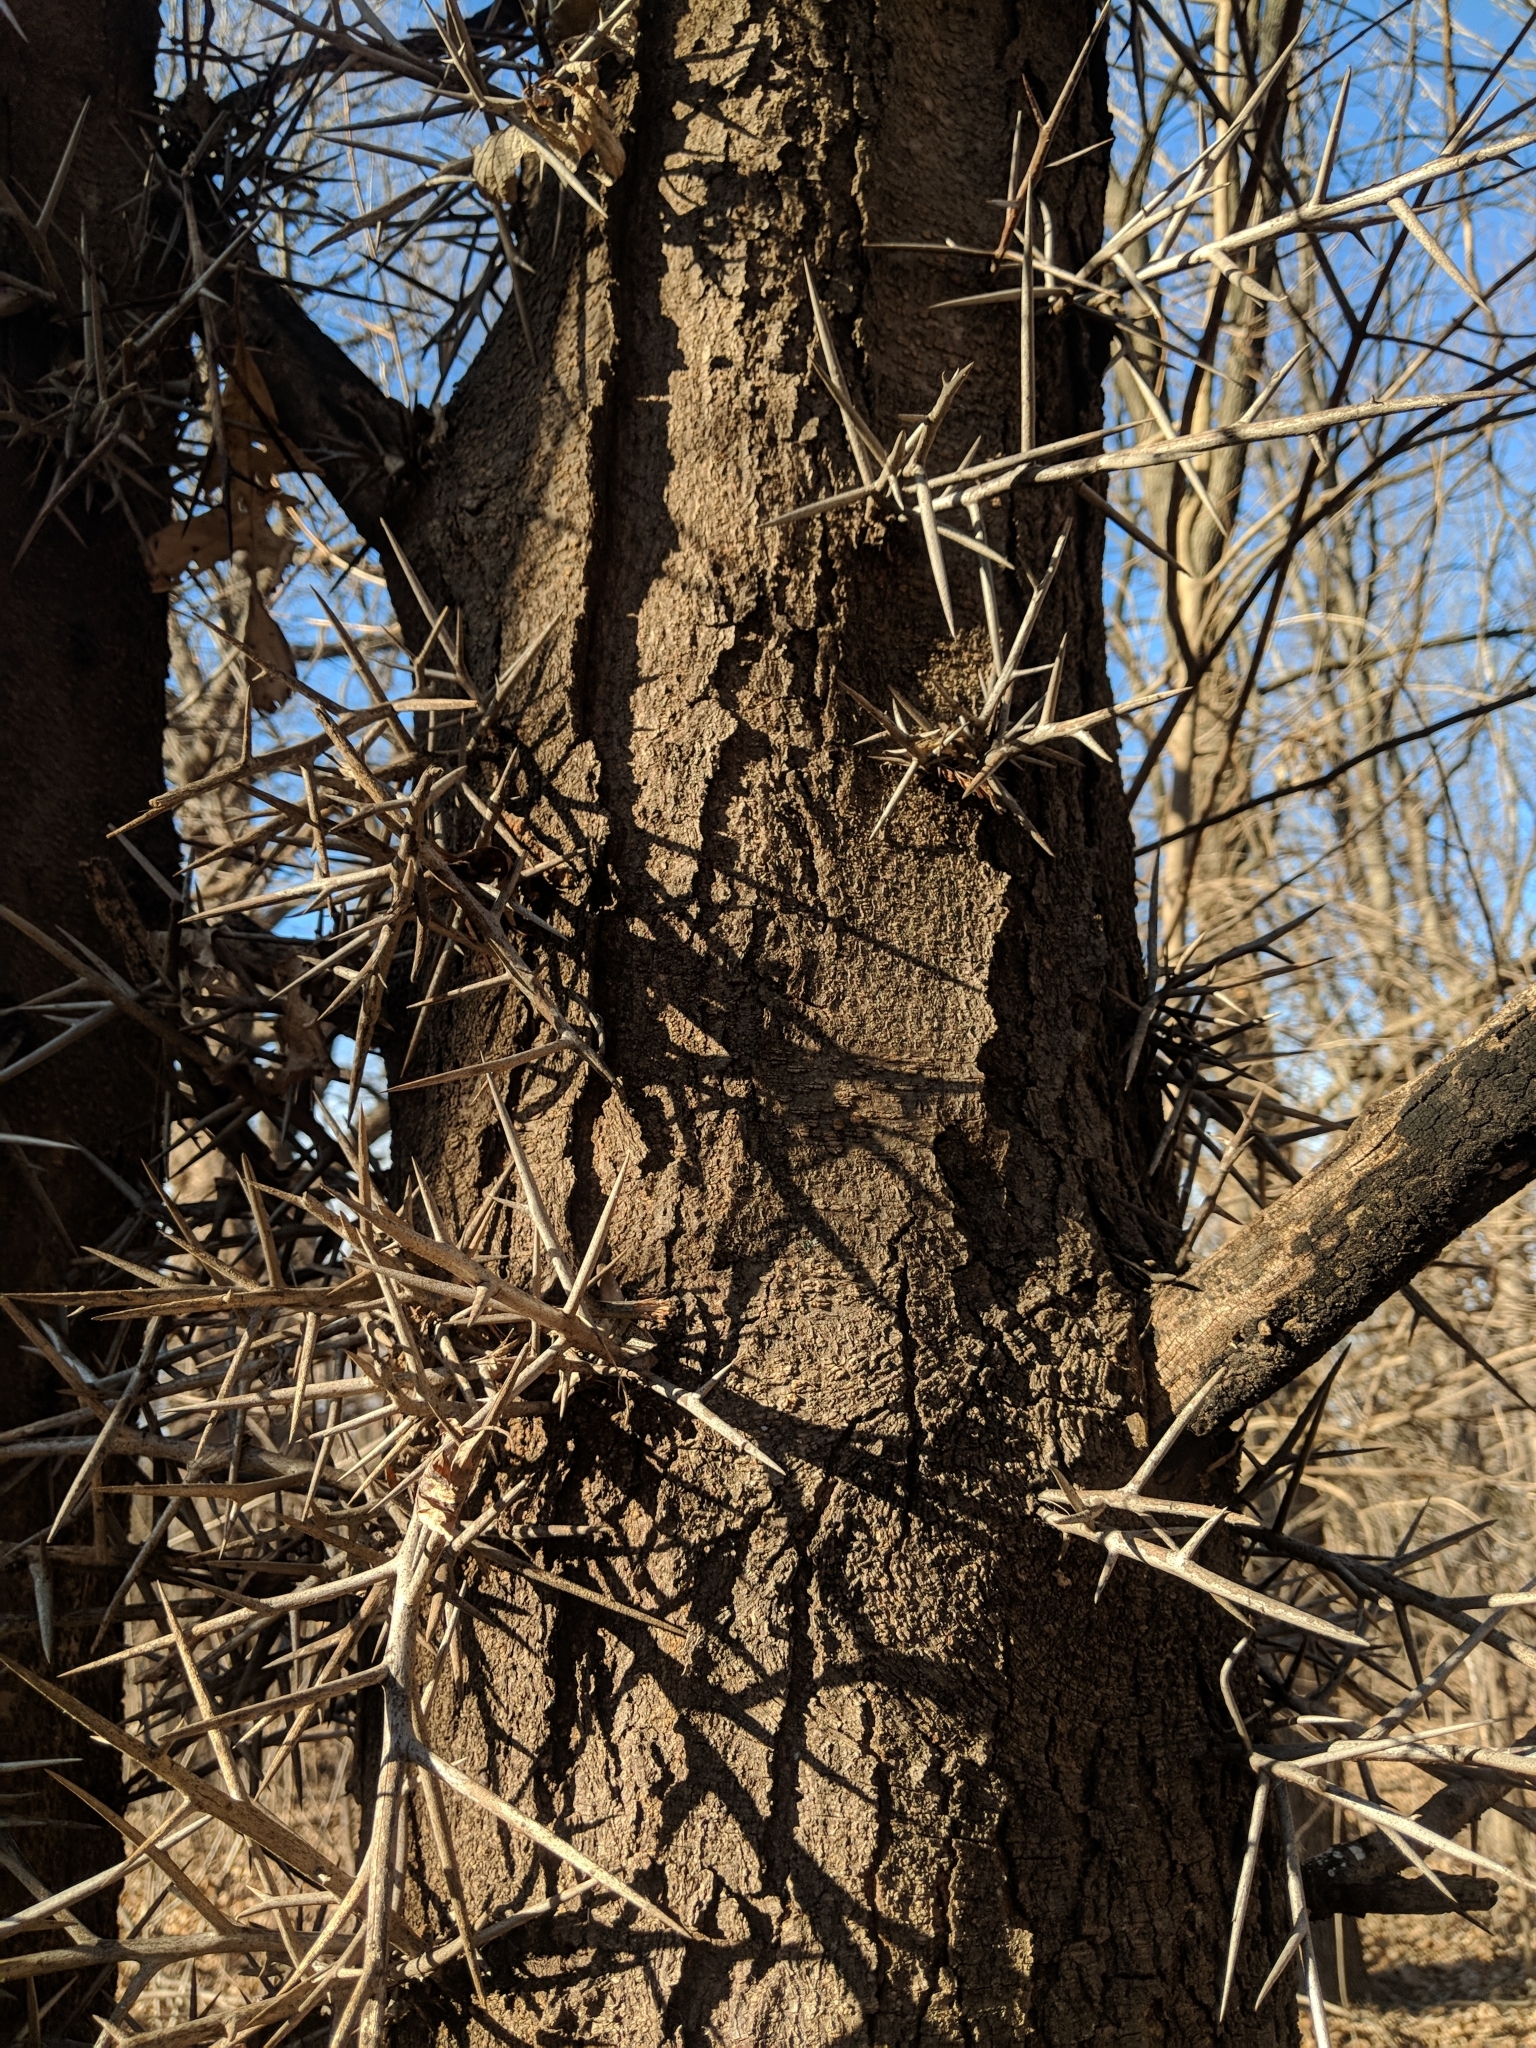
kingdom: Plantae
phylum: Tracheophyta
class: Magnoliopsida
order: Fabales
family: Fabaceae
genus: Gleditsia
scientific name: Gleditsia triacanthos
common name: Common honeylocust
